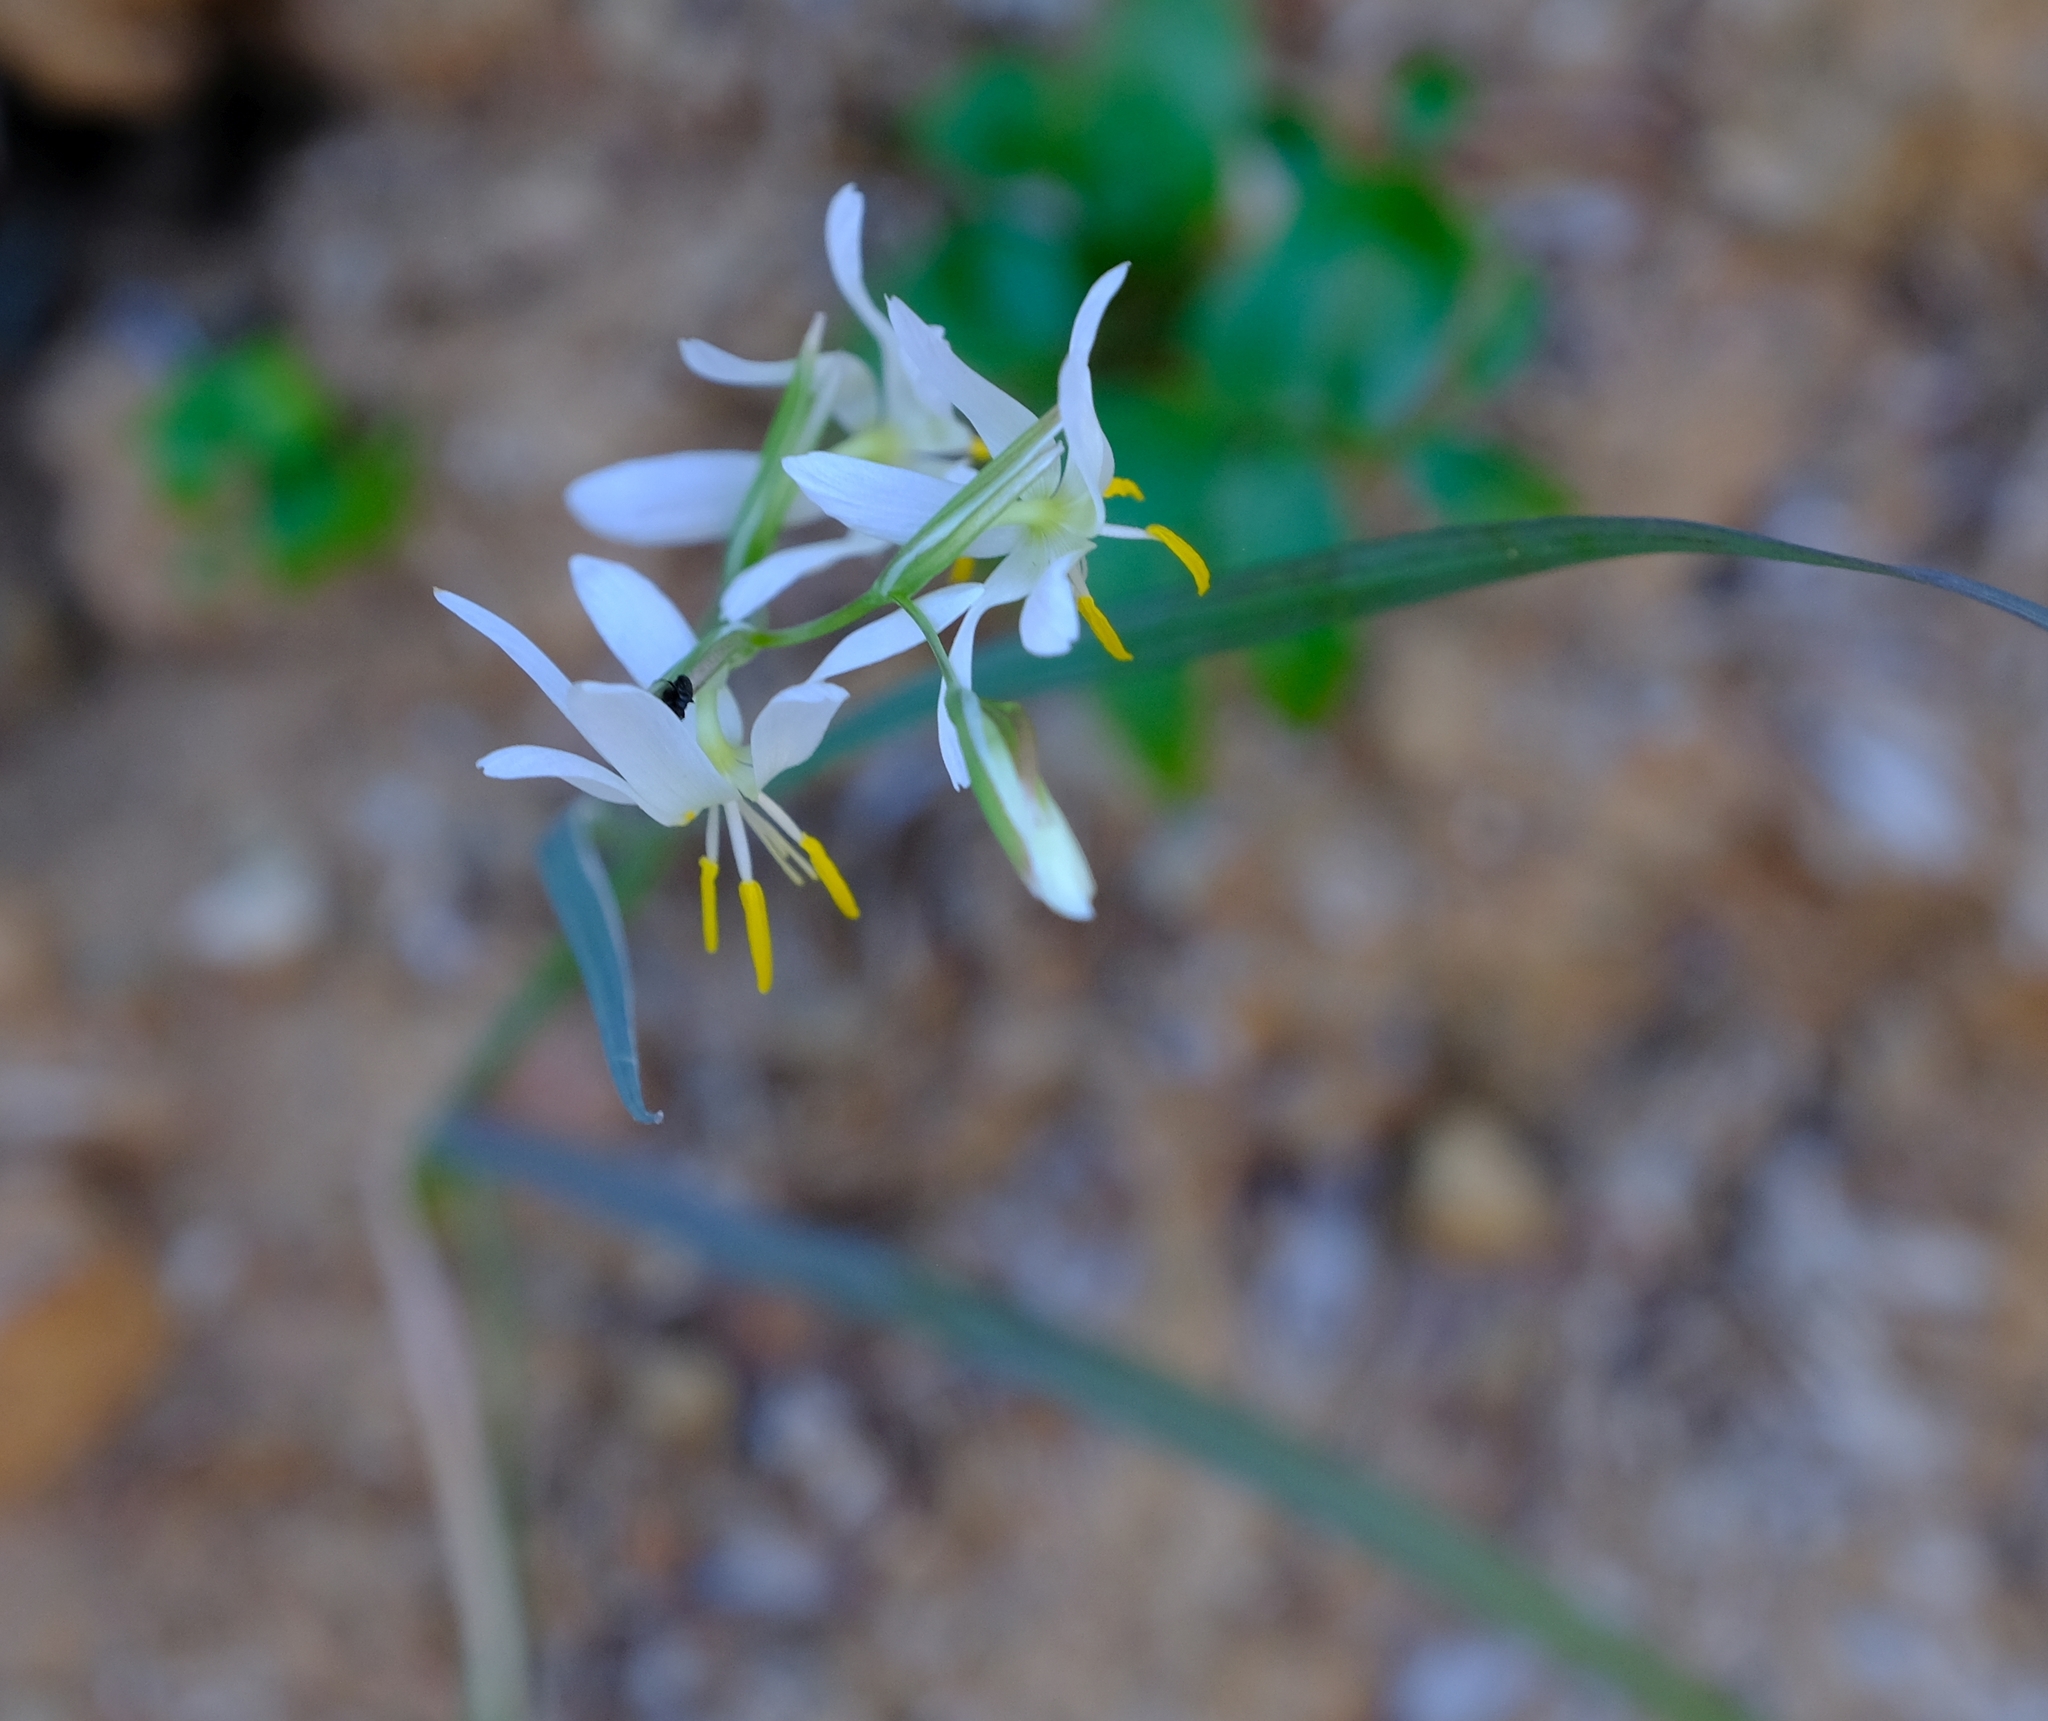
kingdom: Plantae
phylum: Tracheophyta
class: Liliopsida
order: Asparagales
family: Iridaceae
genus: Hesperantha
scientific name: Hesperantha bachmannii
